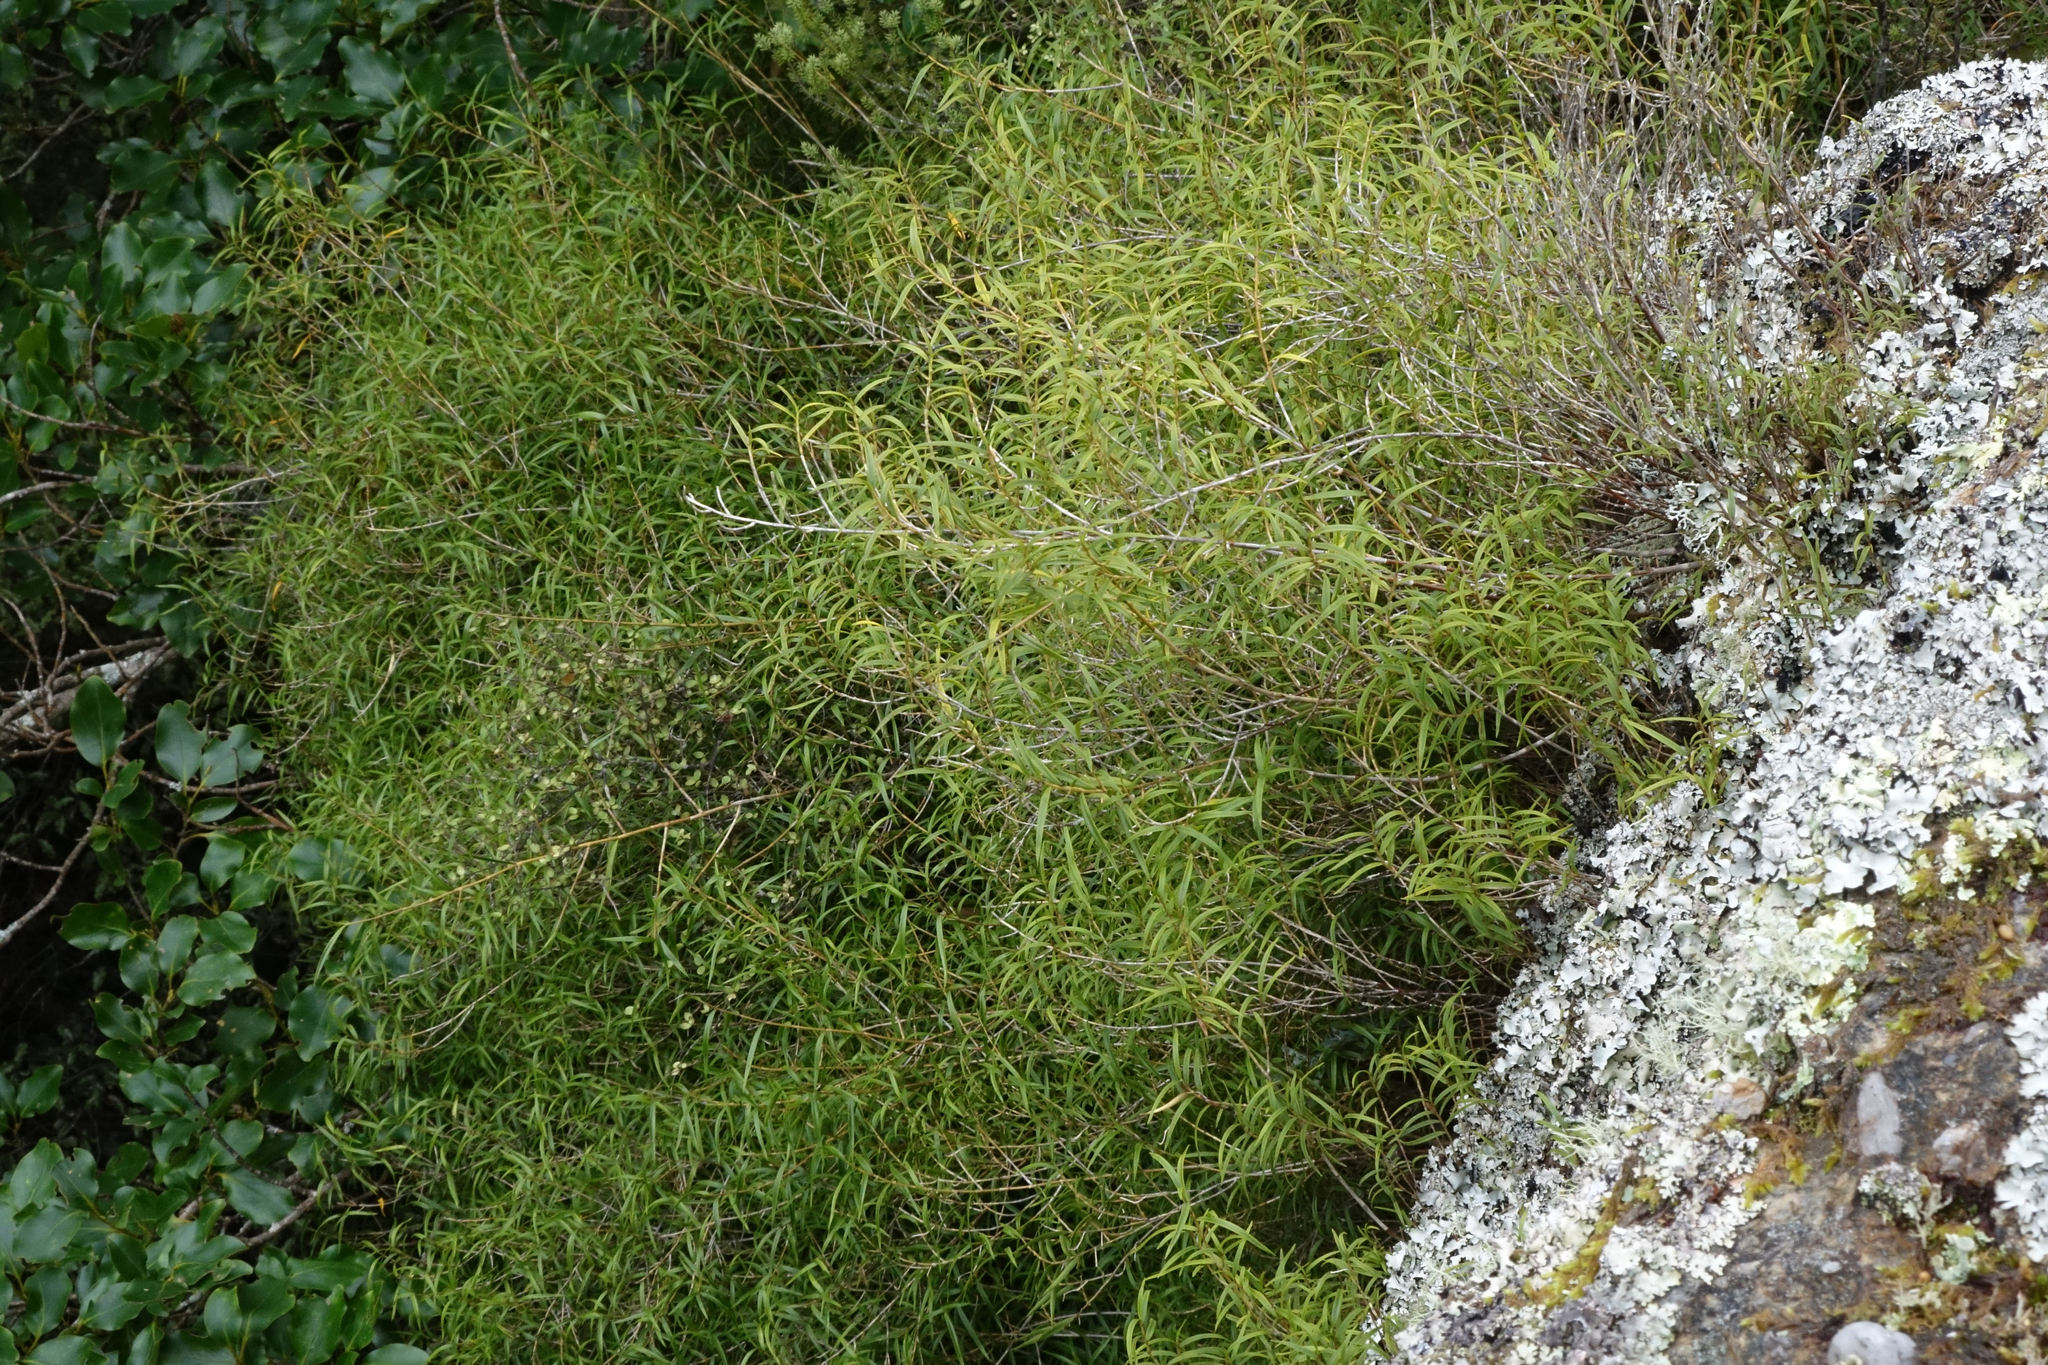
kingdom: Plantae
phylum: Tracheophyta
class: Liliopsida
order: Asparagales
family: Orchidaceae
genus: Dendrobium
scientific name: Dendrobium cunninghamii
